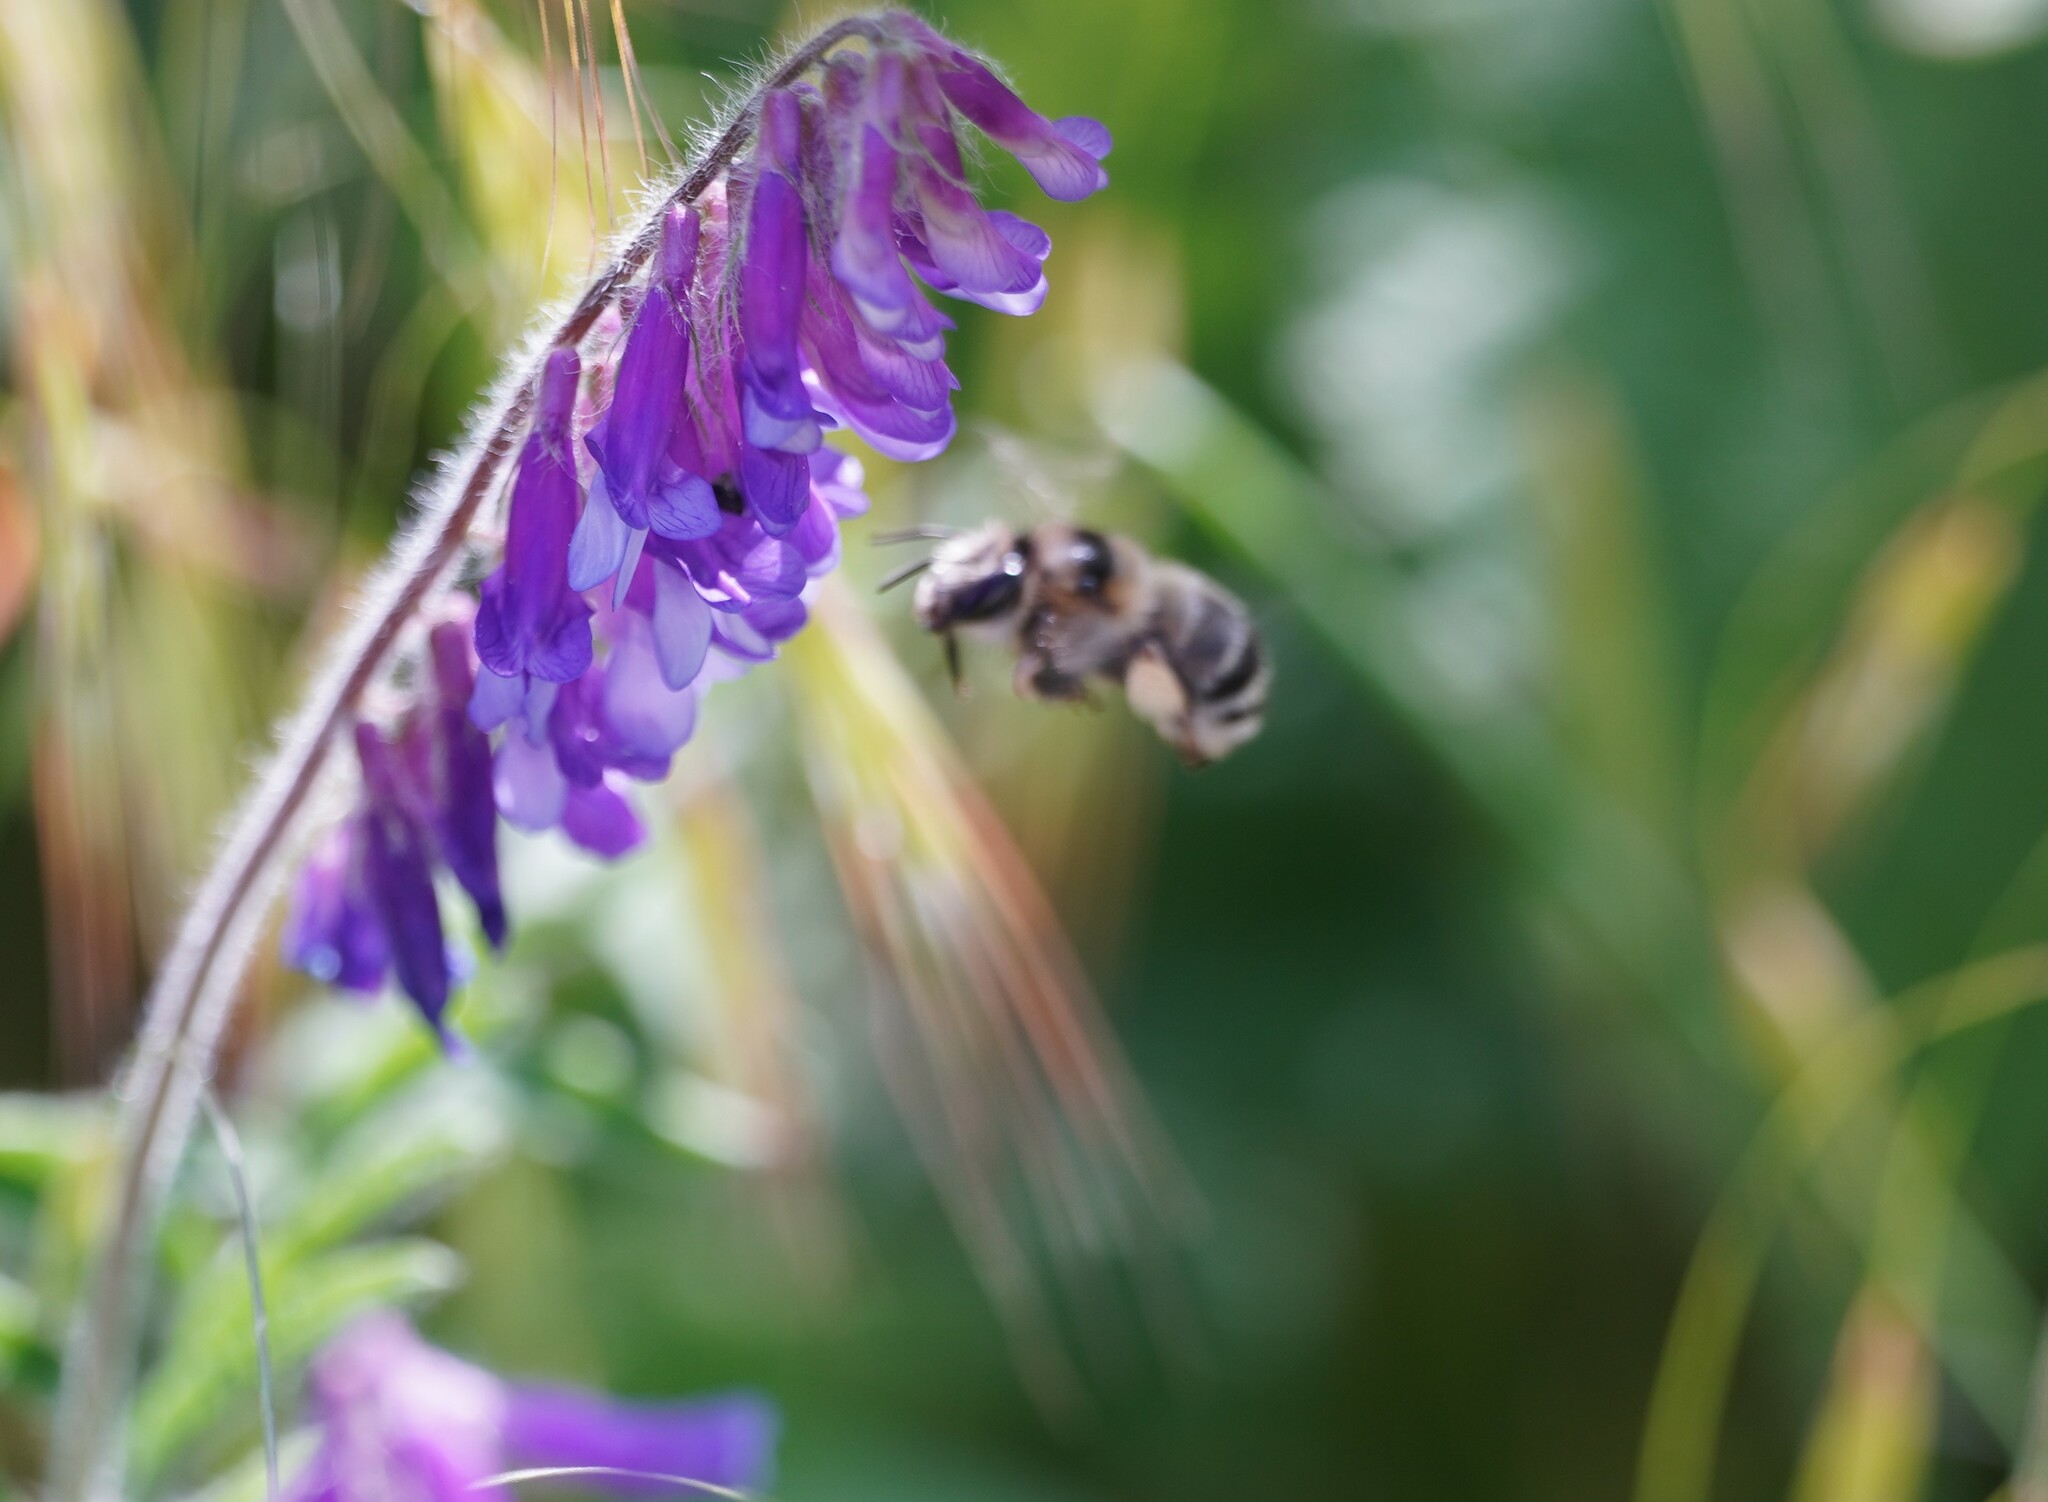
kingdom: Animalia
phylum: Arthropoda
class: Insecta
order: Hymenoptera
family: Apidae
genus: Anthophora
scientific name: Anthophora aestivalis
